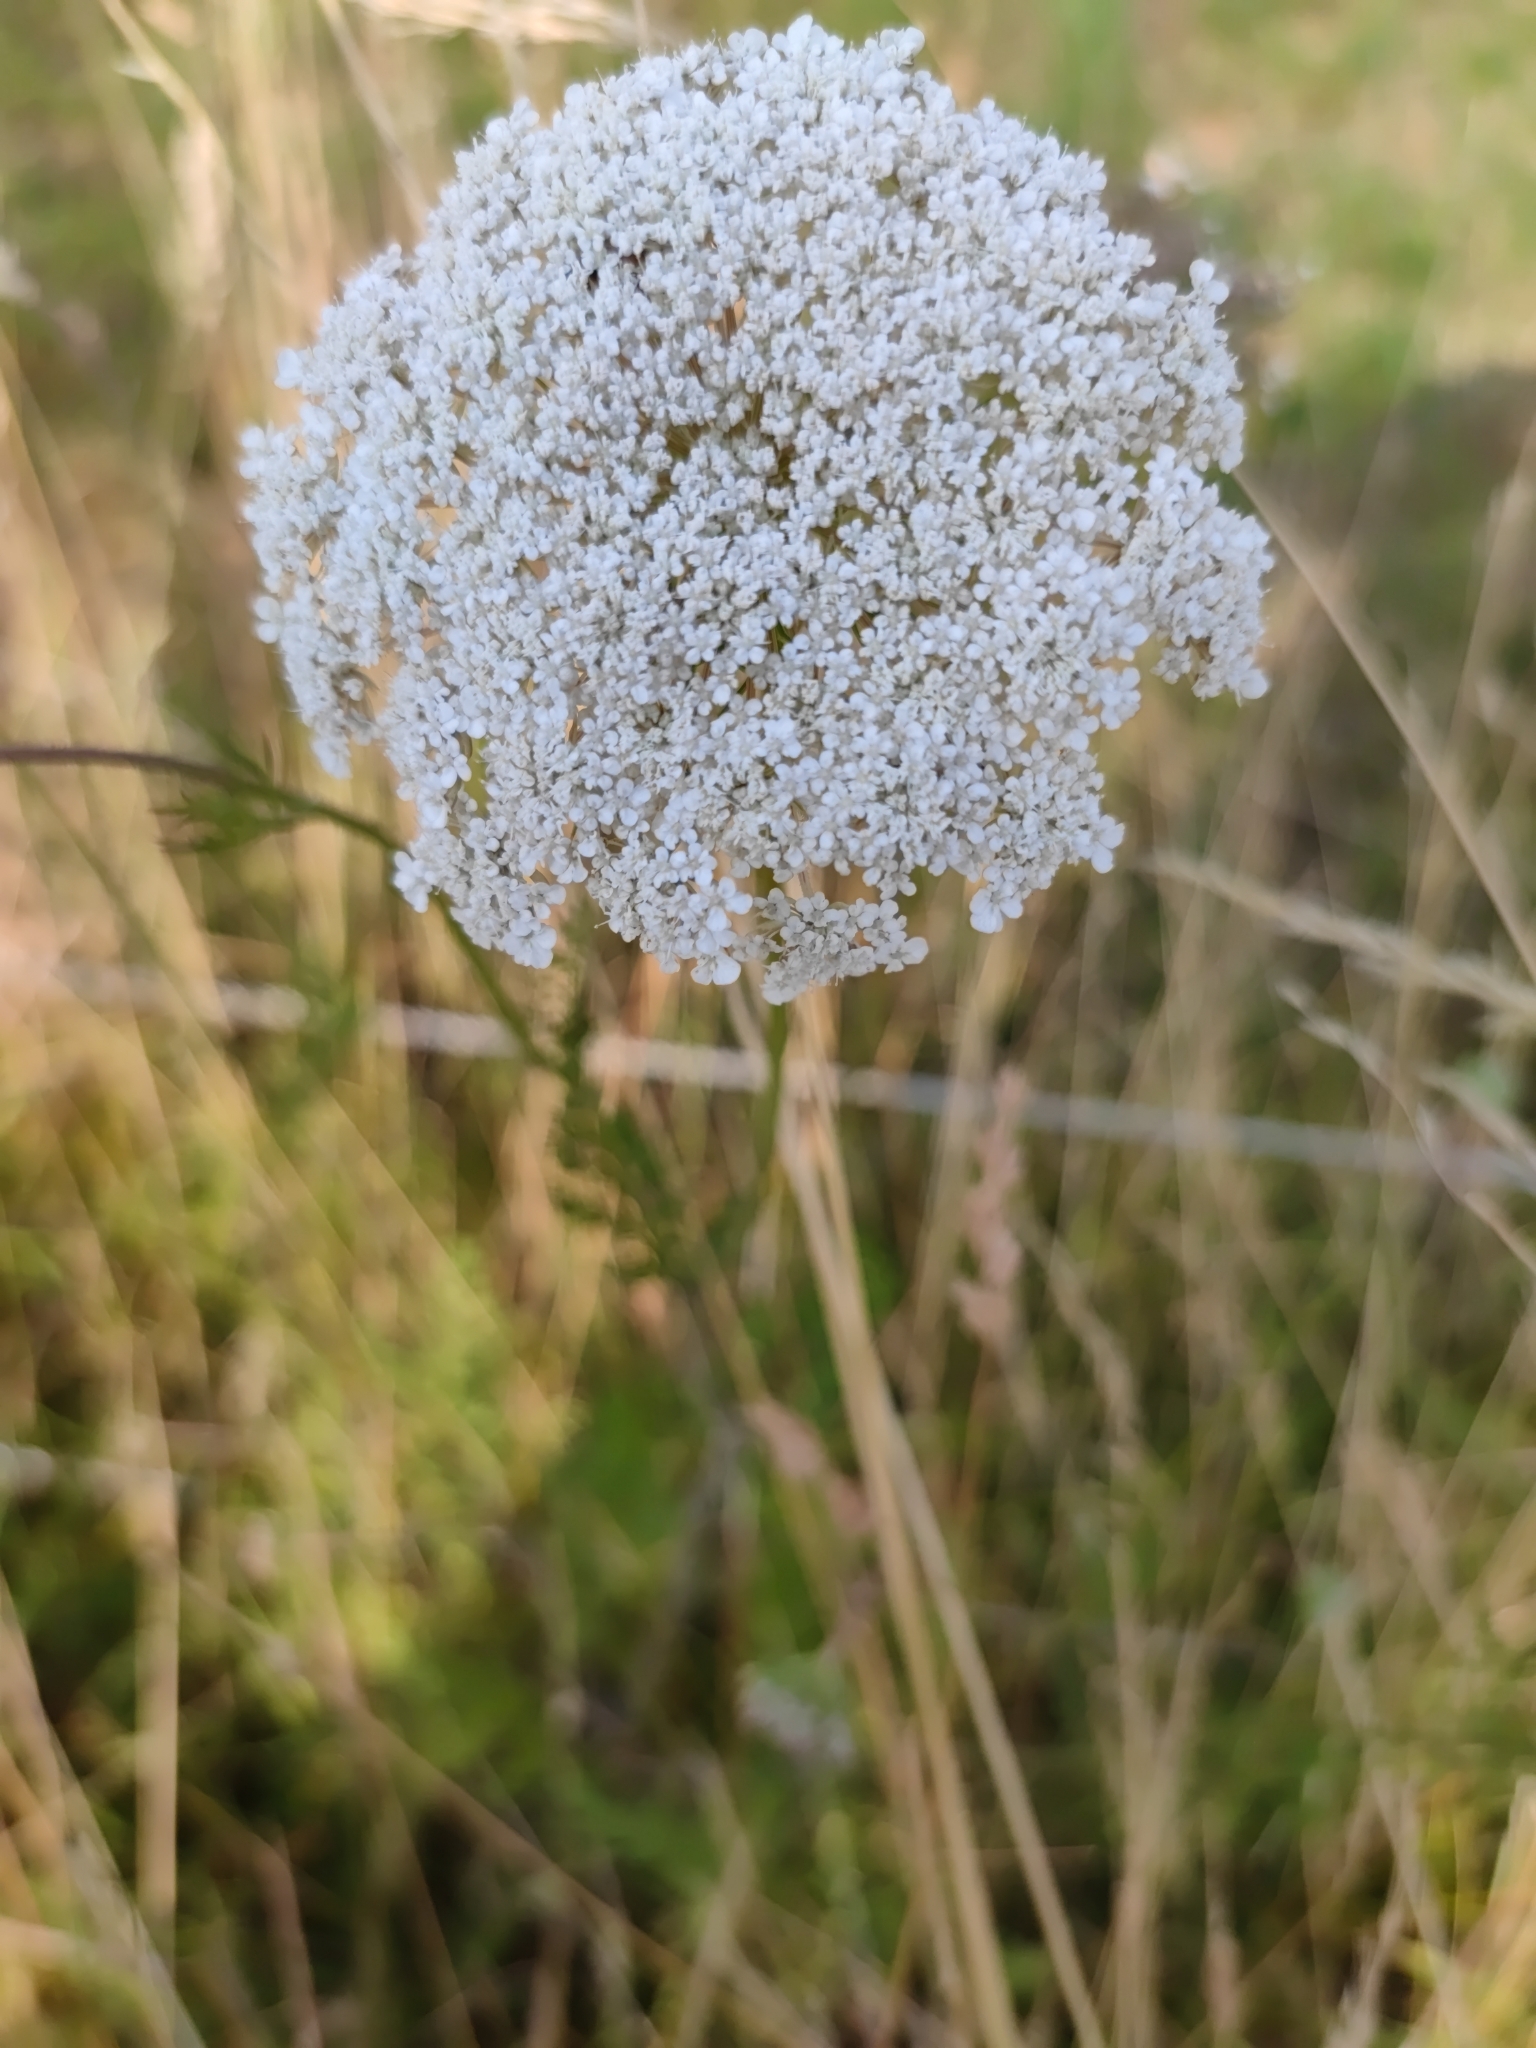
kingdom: Plantae
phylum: Tracheophyta
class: Magnoliopsida
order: Apiales
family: Apiaceae
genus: Daucus
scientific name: Daucus carota
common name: Wild carrot
